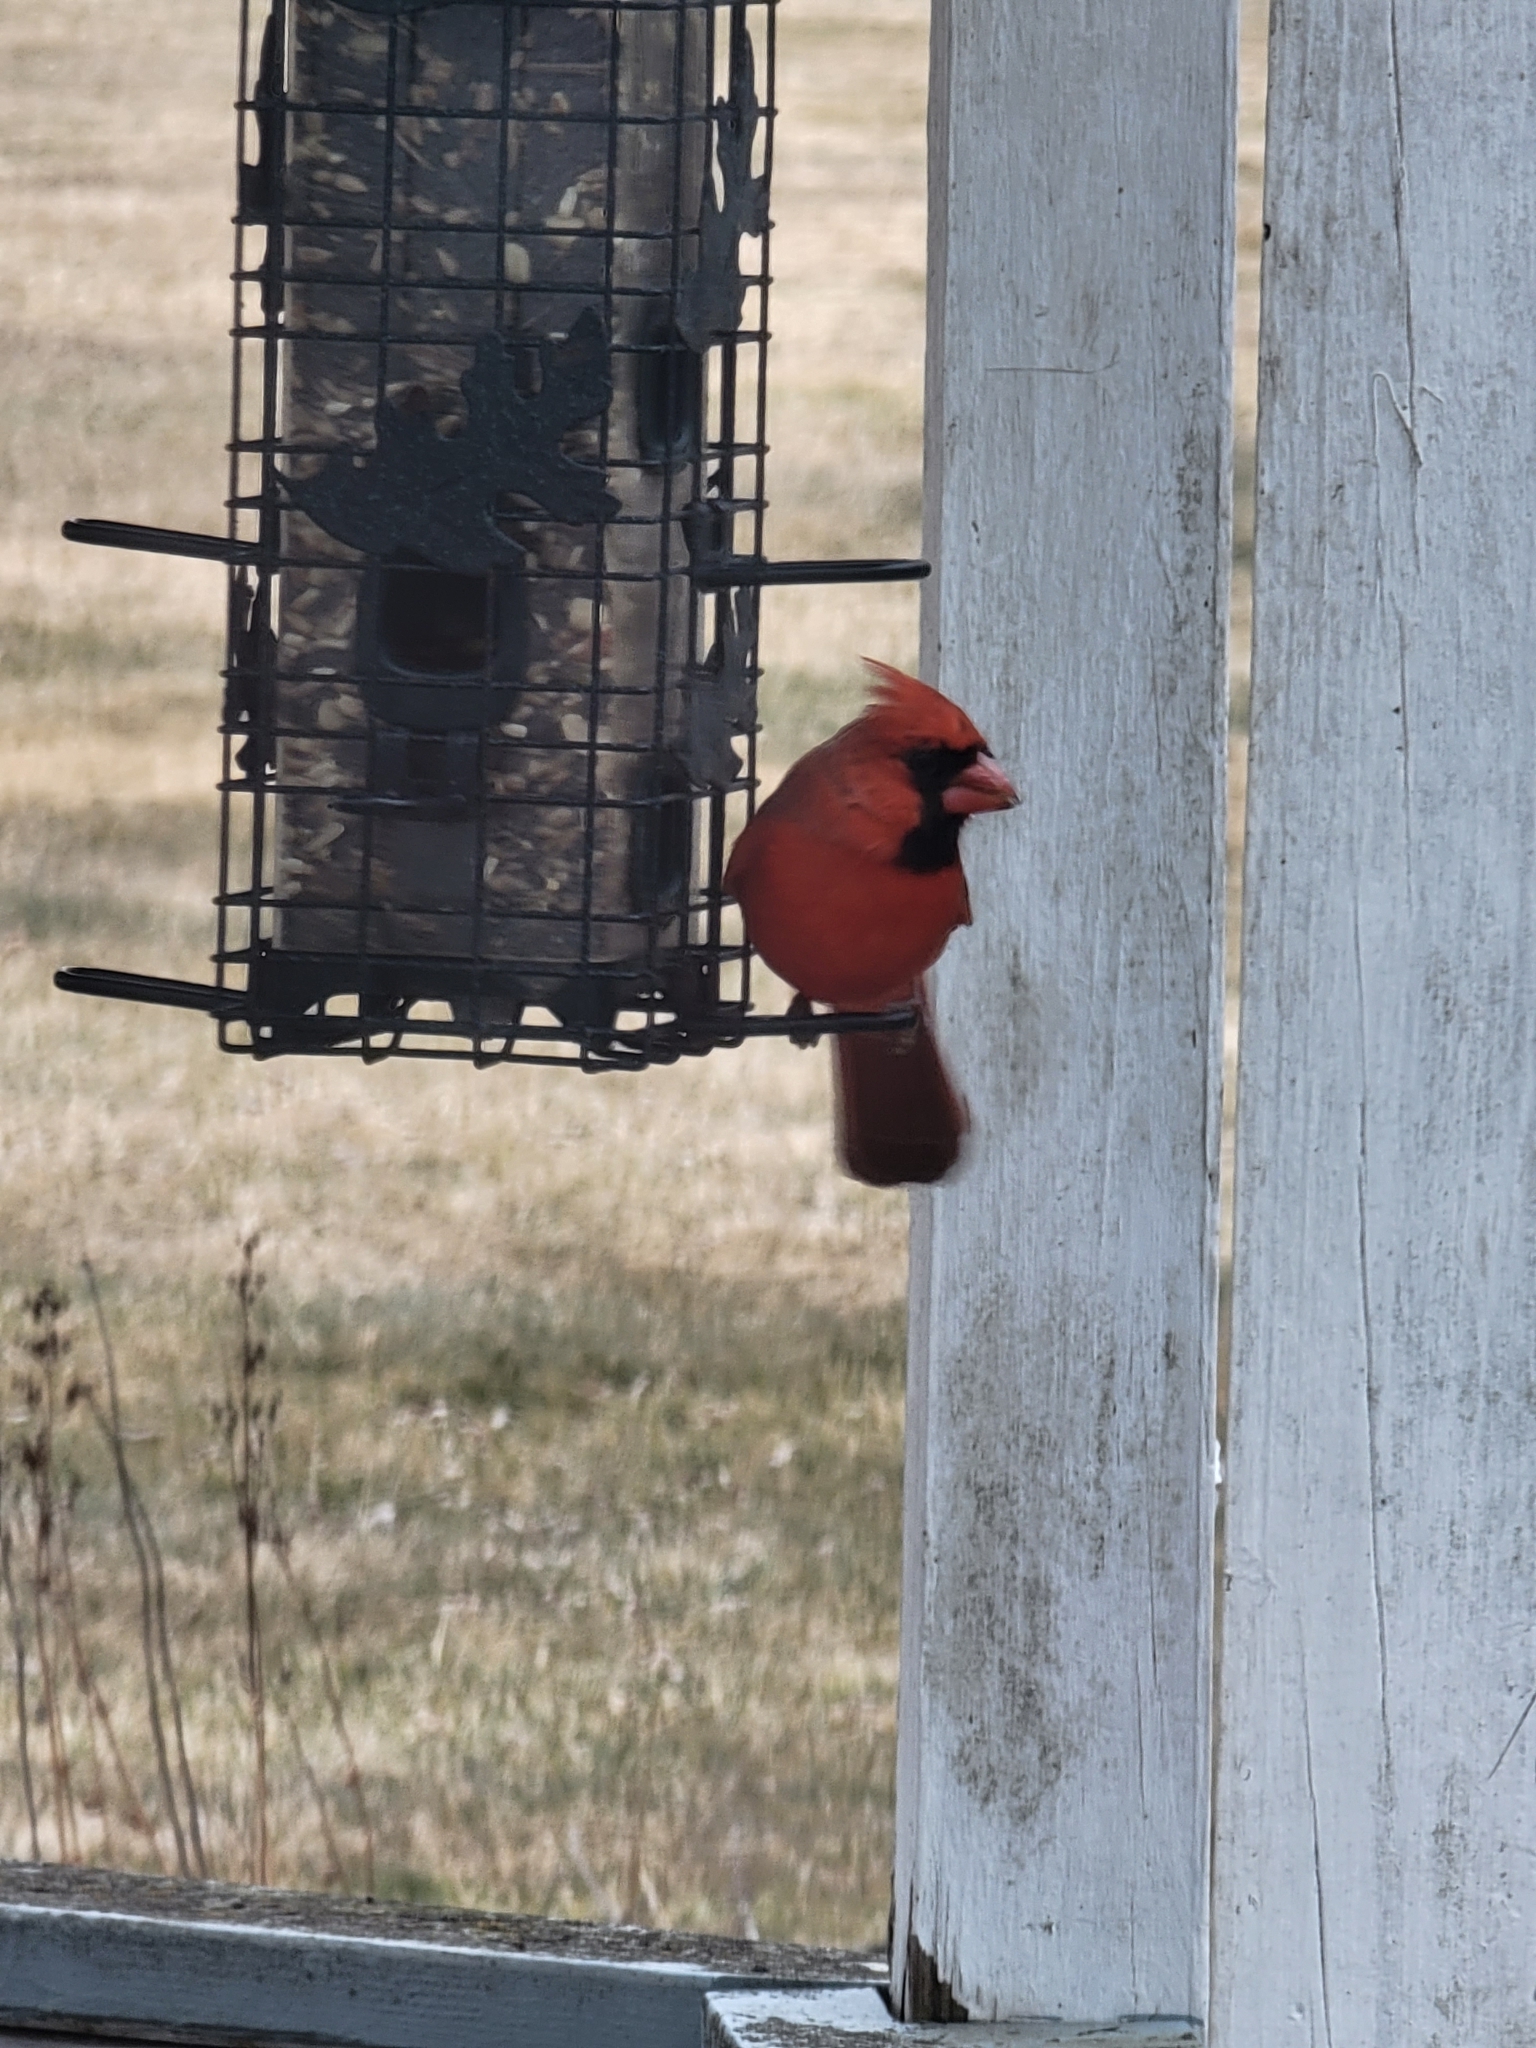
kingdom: Animalia
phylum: Chordata
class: Aves
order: Passeriformes
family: Cardinalidae
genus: Cardinalis
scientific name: Cardinalis cardinalis
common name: Northern cardinal
